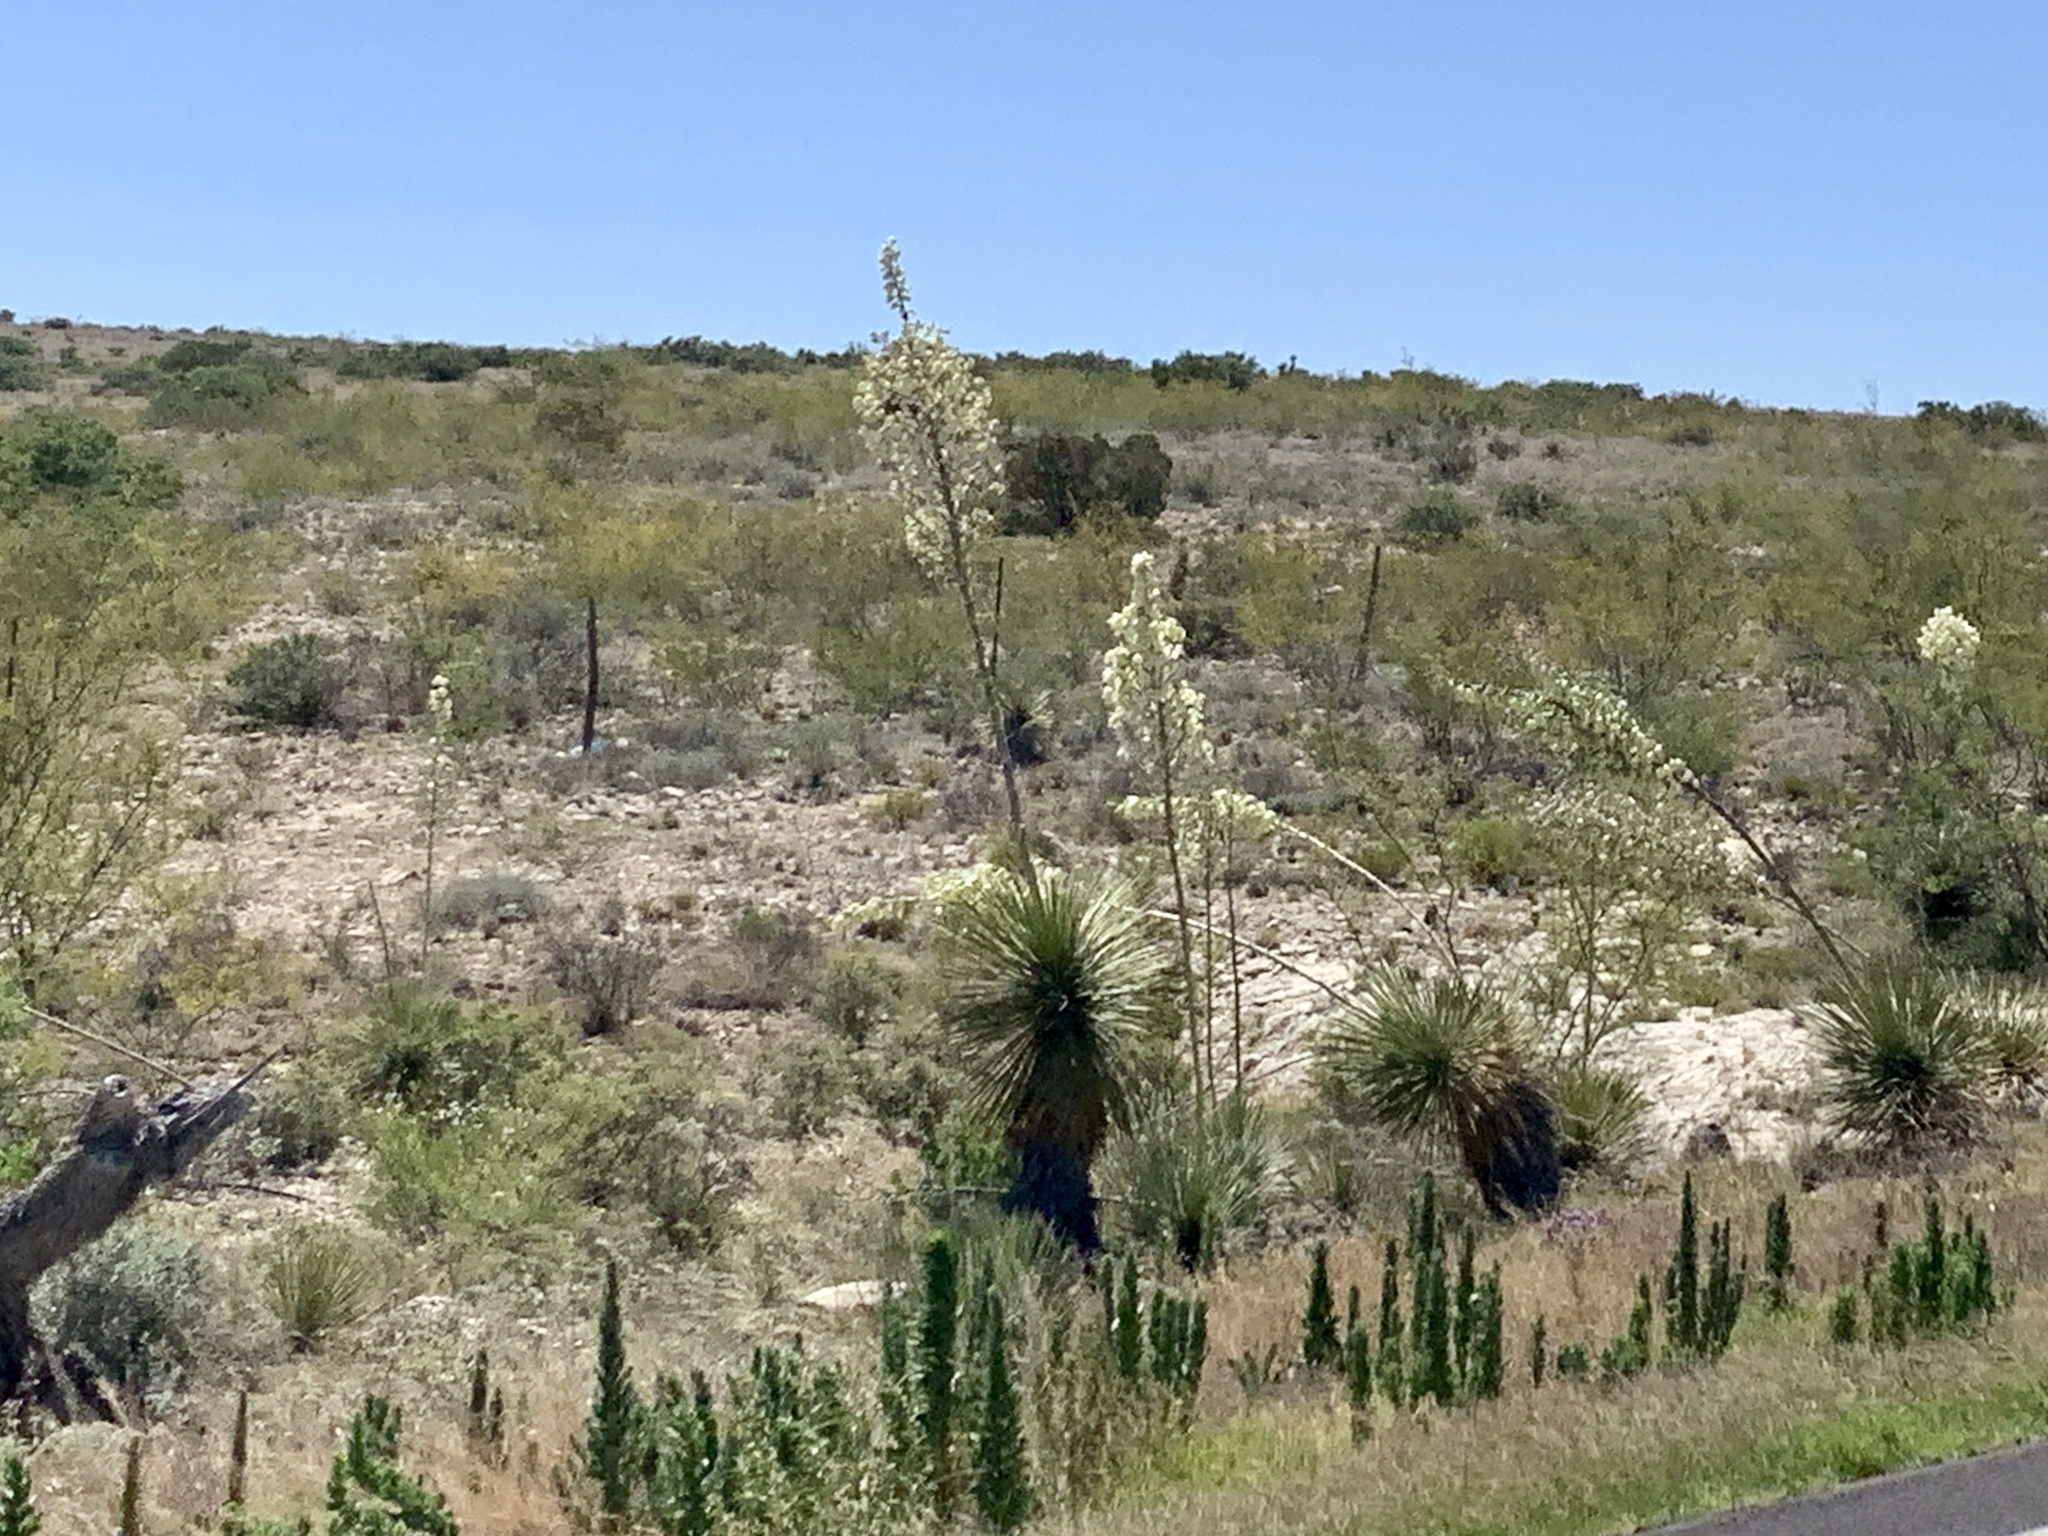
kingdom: Plantae
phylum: Tracheophyta
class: Liliopsida
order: Asparagales
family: Asparagaceae
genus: Yucca
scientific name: Yucca elata
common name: Palmella
